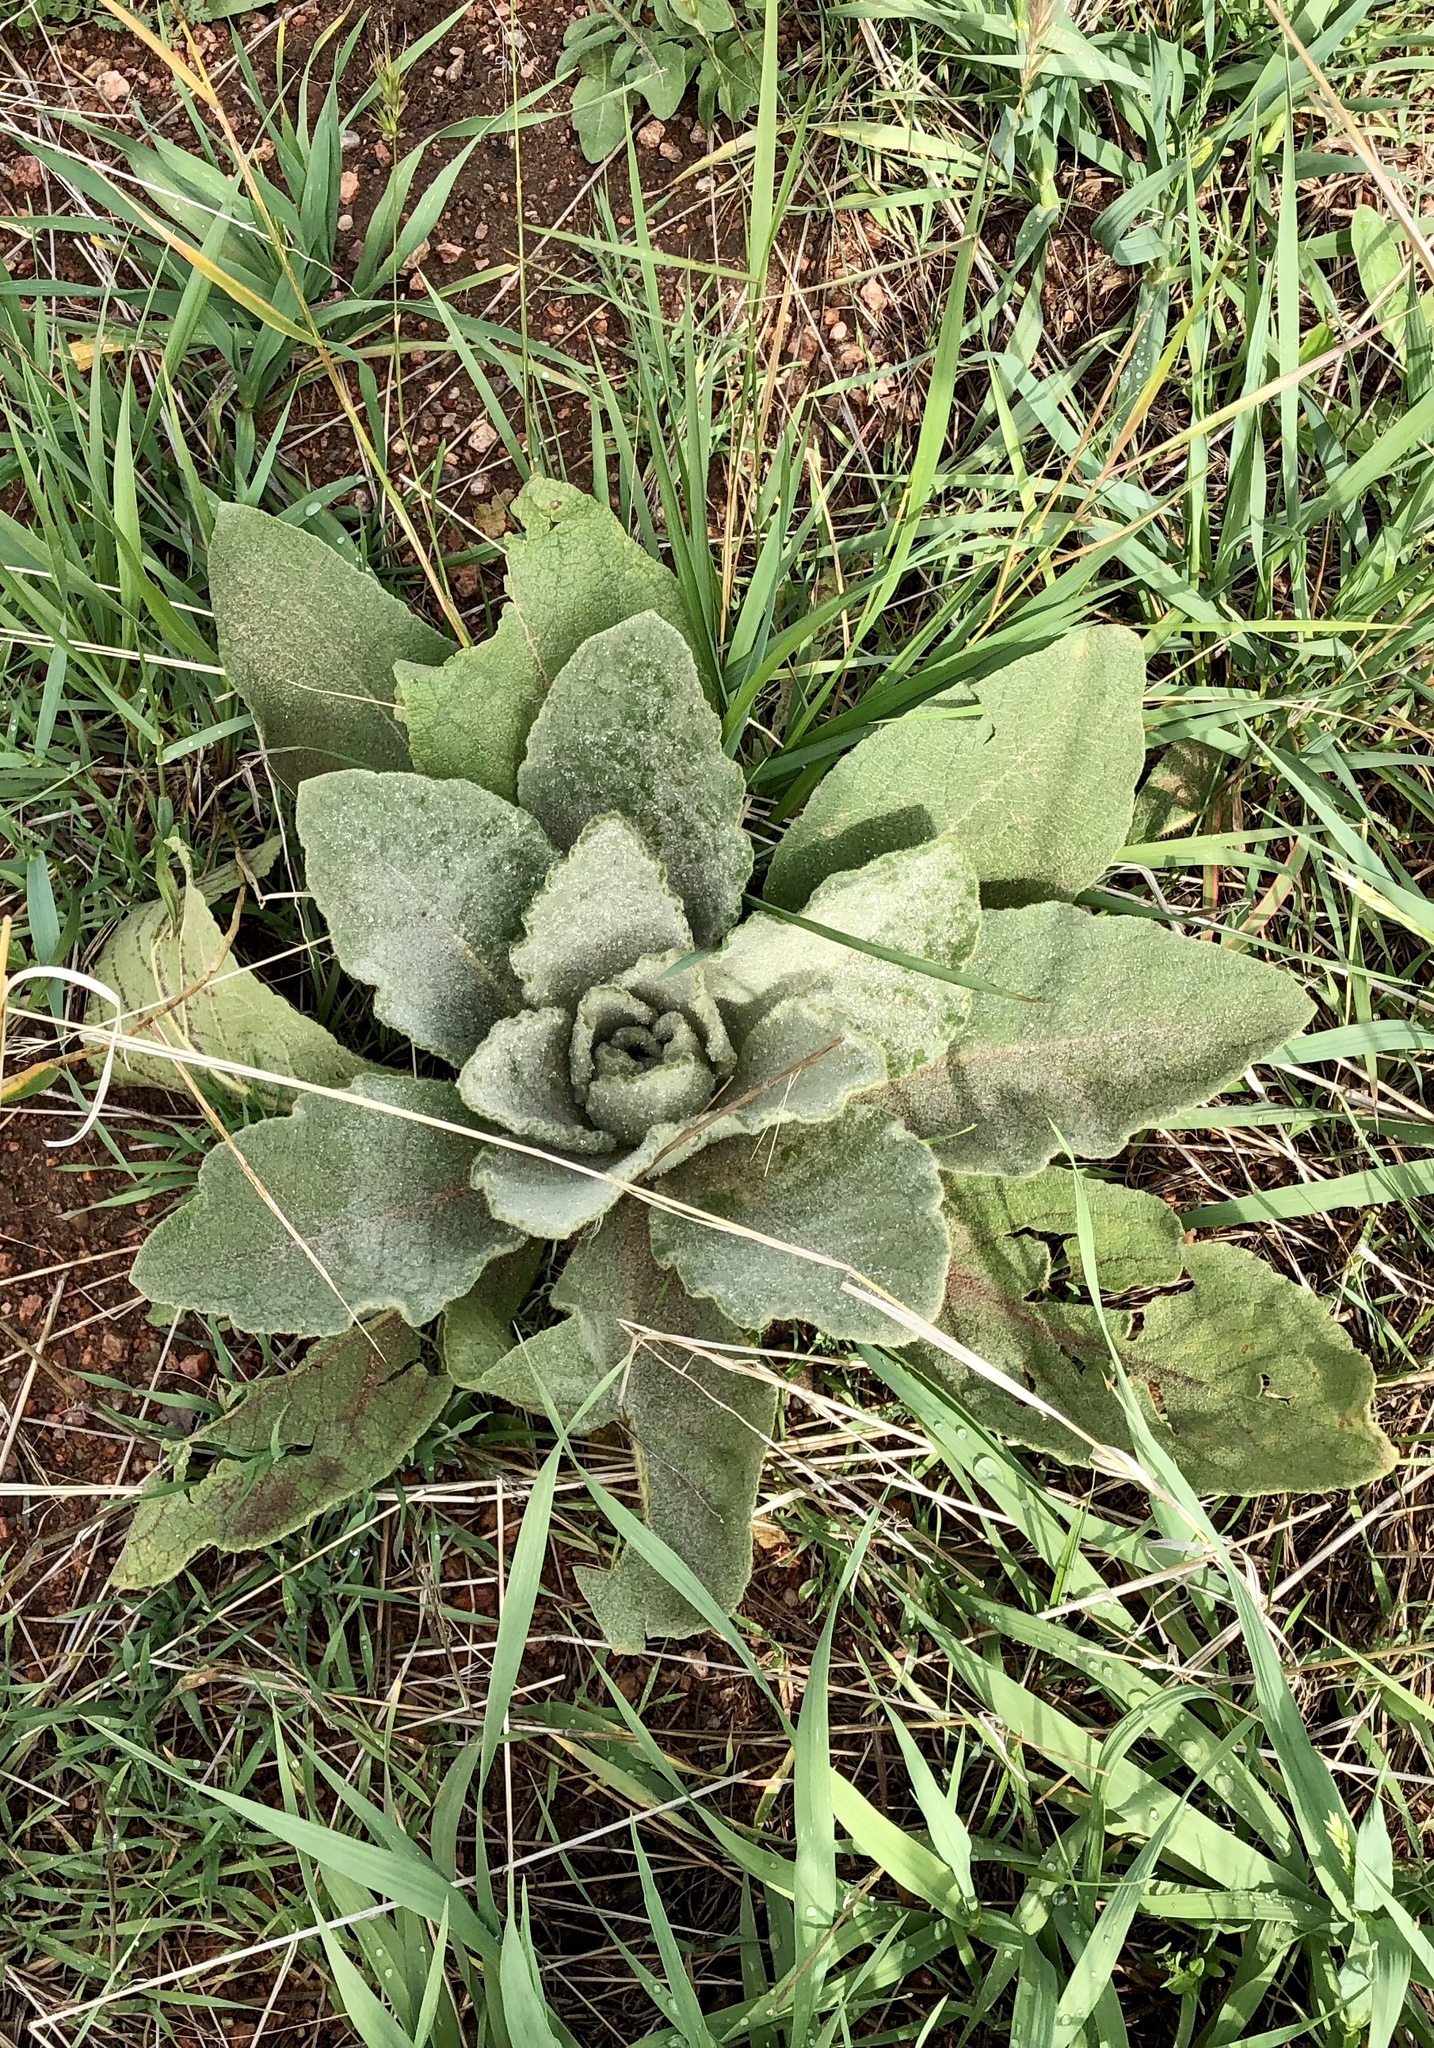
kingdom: Plantae
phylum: Tracheophyta
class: Magnoliopsida
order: Lamiales
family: Scrophulariaceae
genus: Verbascum
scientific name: Verbascum thapsus
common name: Common mullein
